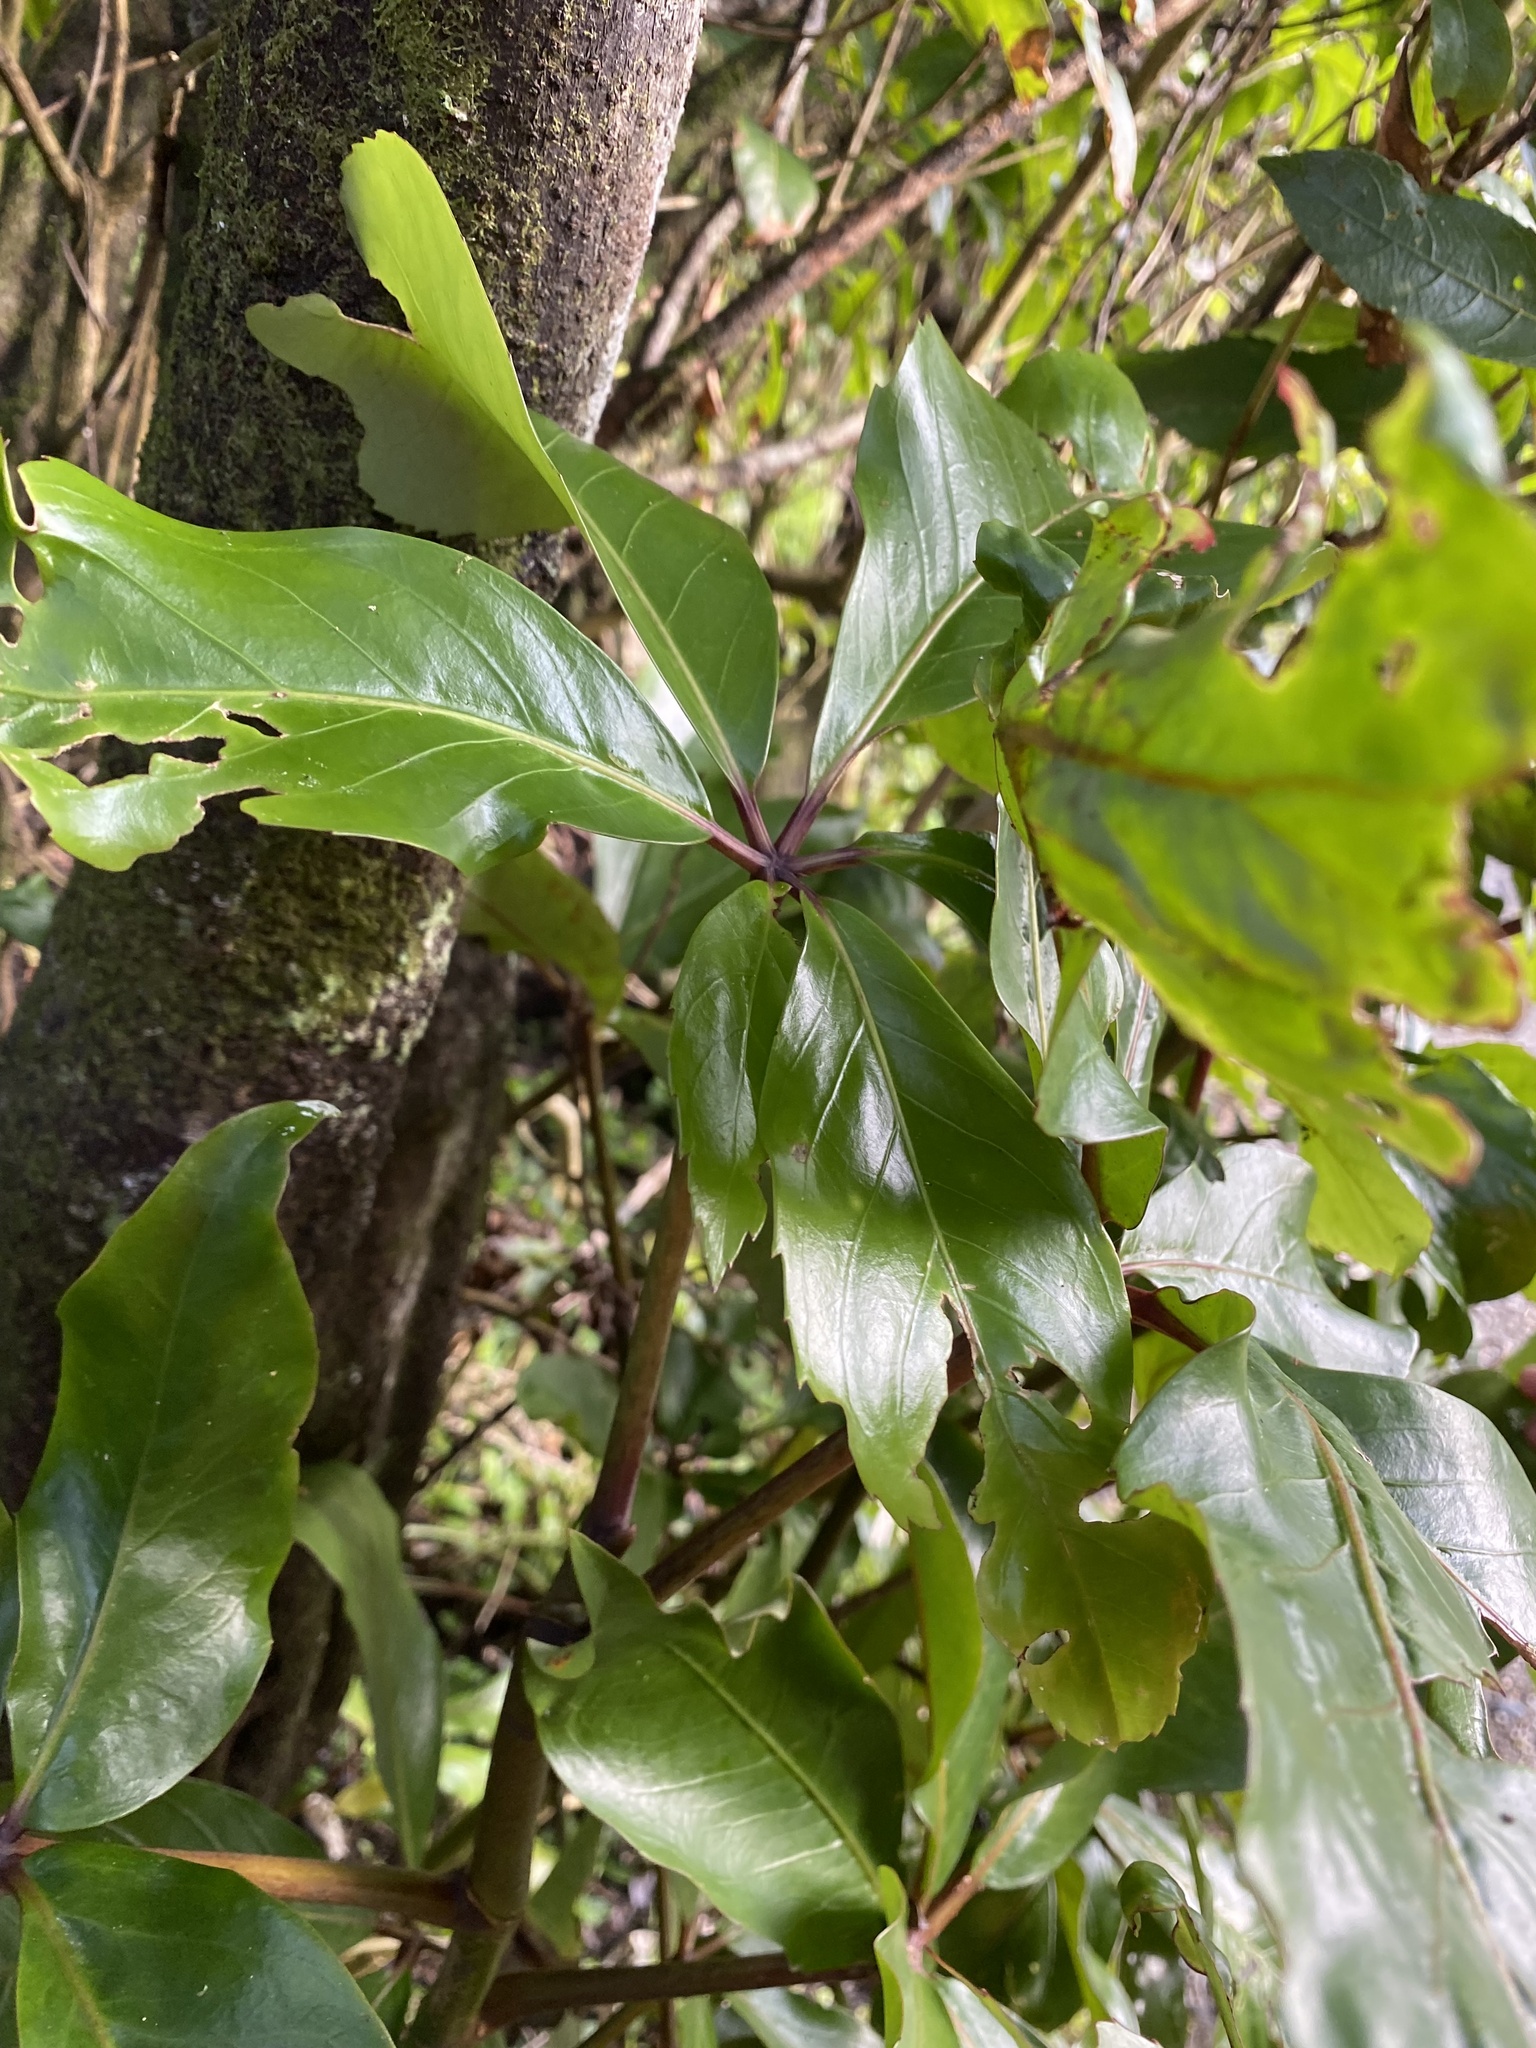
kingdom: Plantae
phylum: Tracheophyta
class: Magnoliopsida
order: Apiales
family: Araliaceae
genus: Neopanax
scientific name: Neopanax laetus
